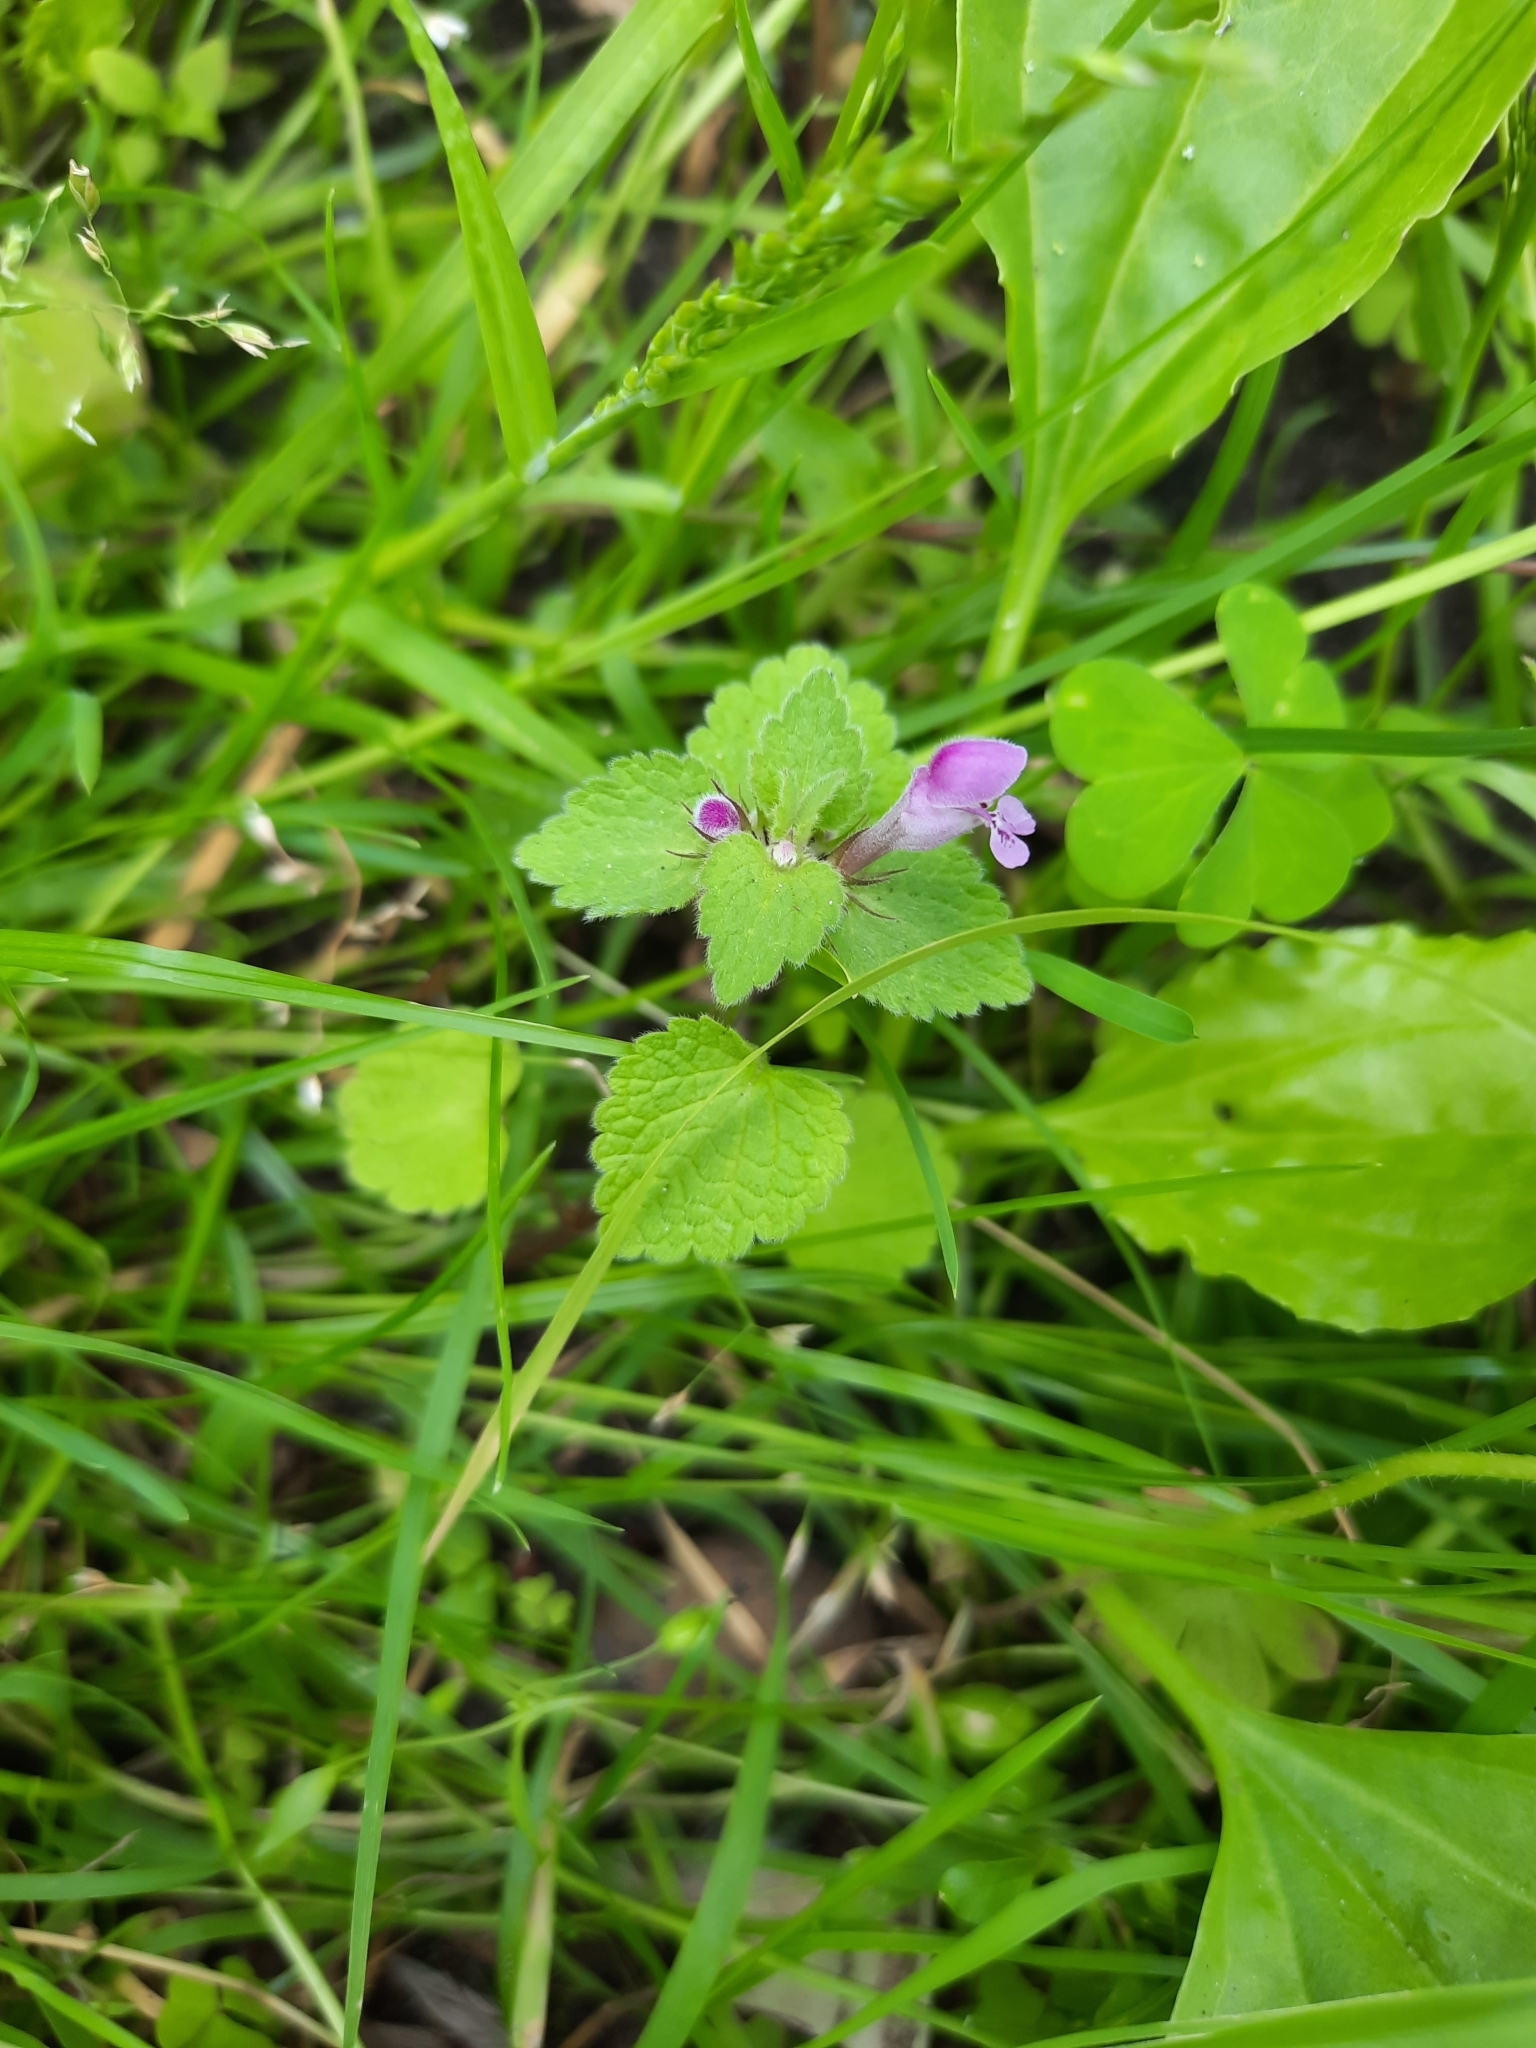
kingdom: Plantae
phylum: Tracheophyta
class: Magnoliopsida
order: Lamiales
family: Lamiaceae
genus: Lamium
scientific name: Lamium purpureum
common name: Red dead-nettle
